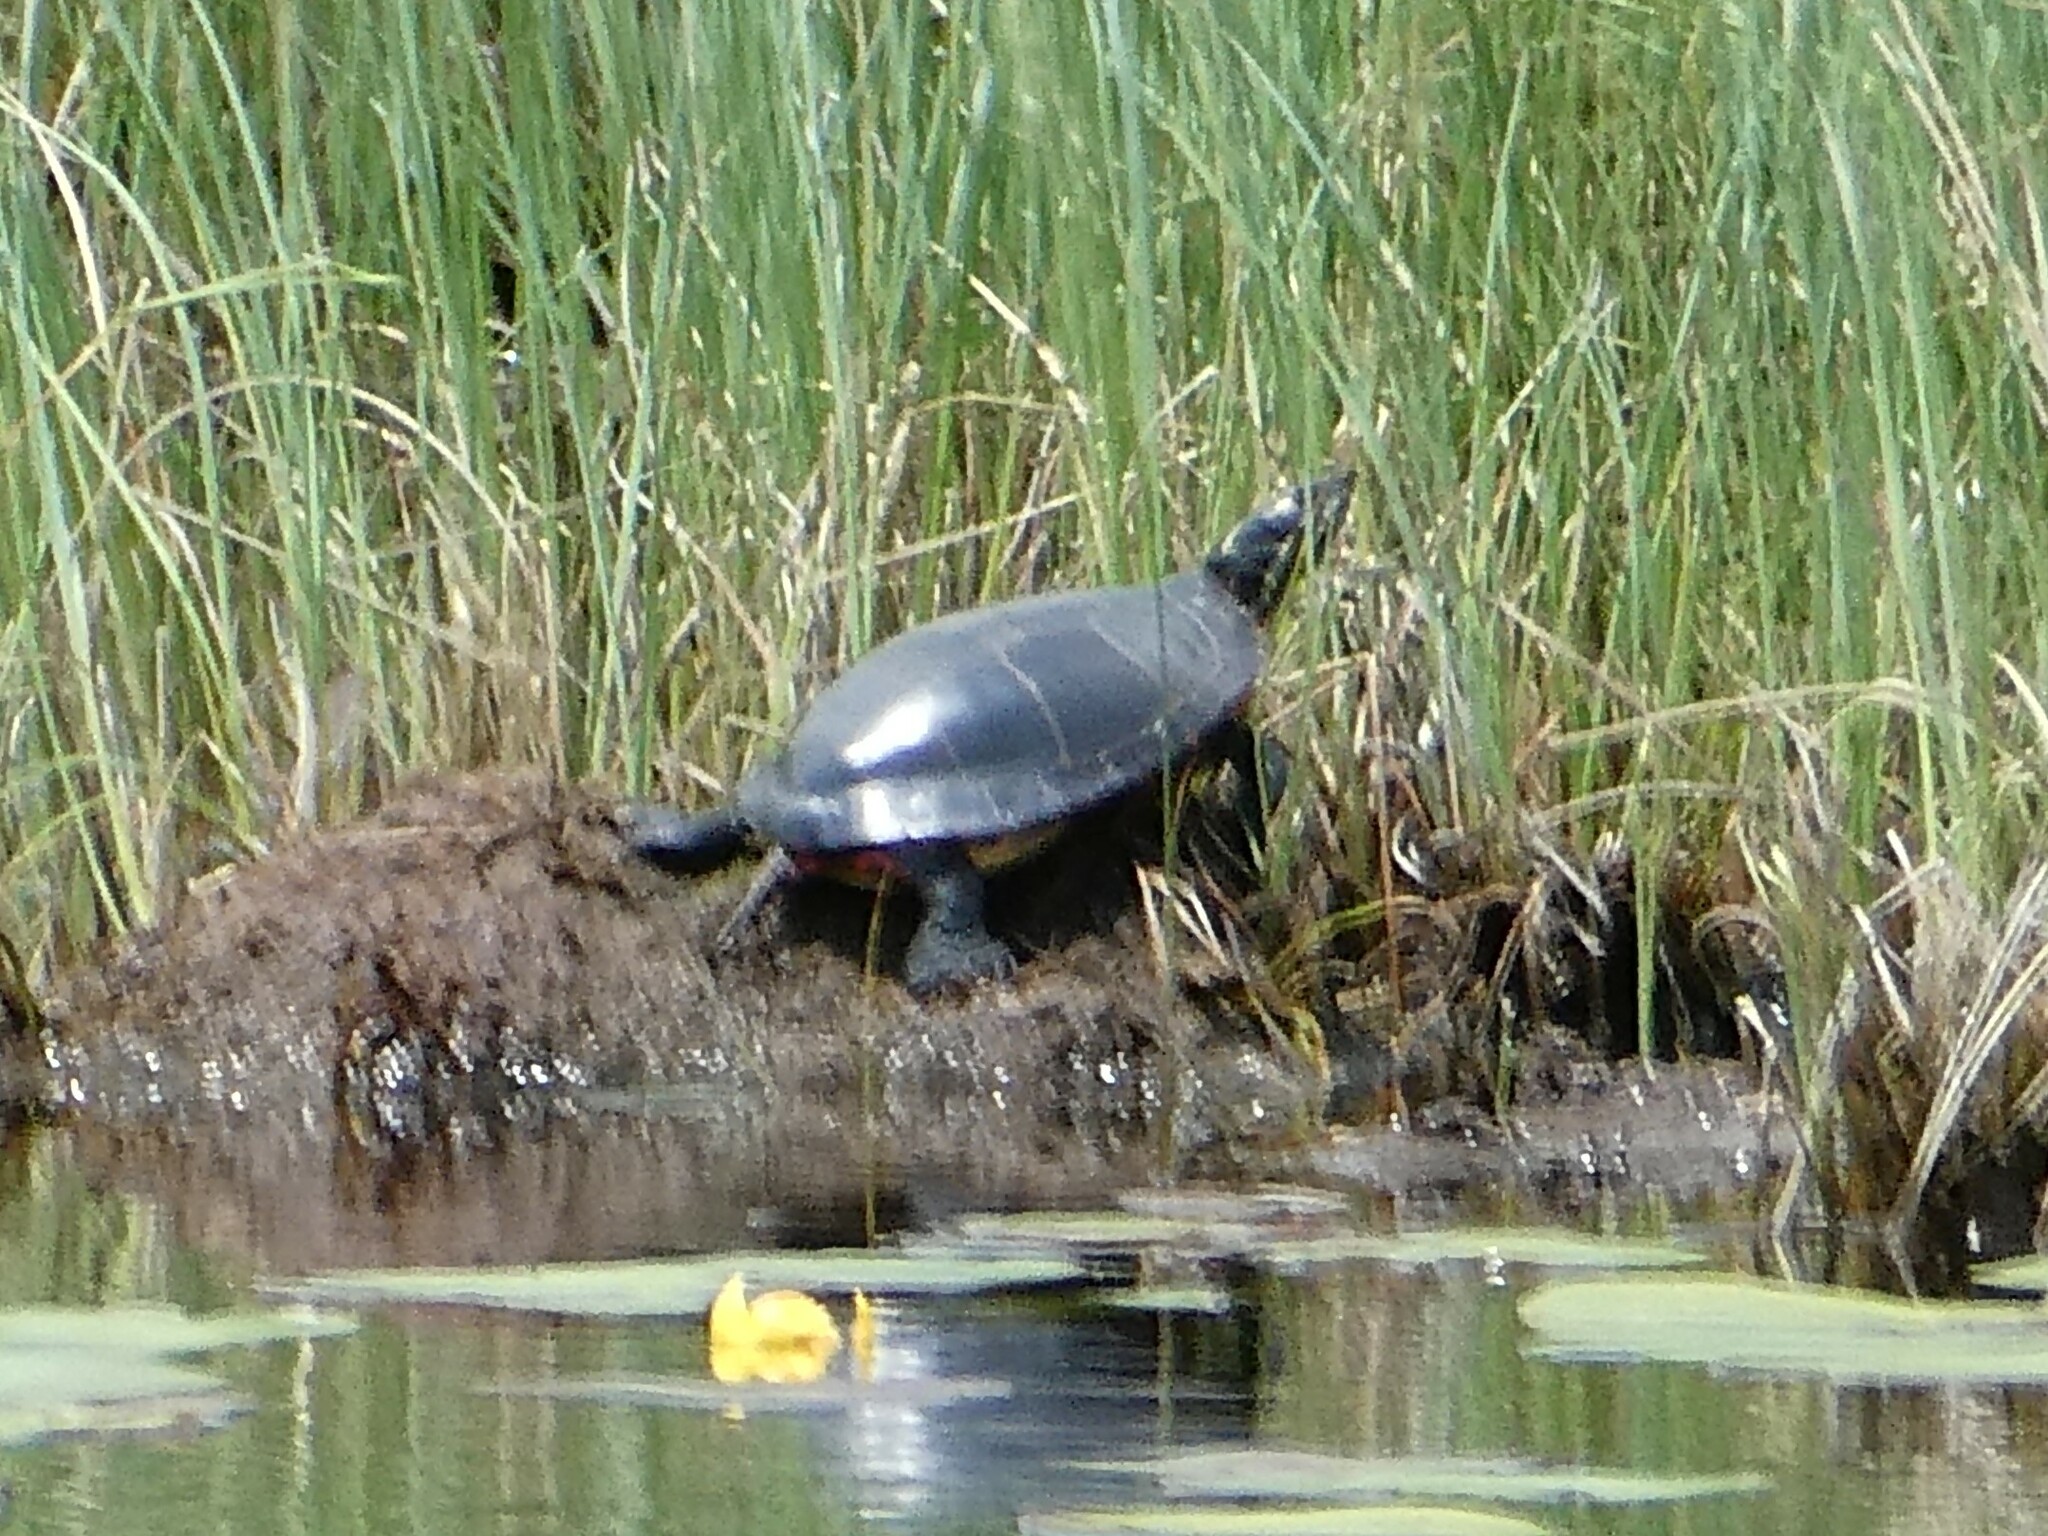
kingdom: Animalia
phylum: Chordata
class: Testudines
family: Emydidae
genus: Chrysemys
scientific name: Chrysemys picta
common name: Painted turtle
